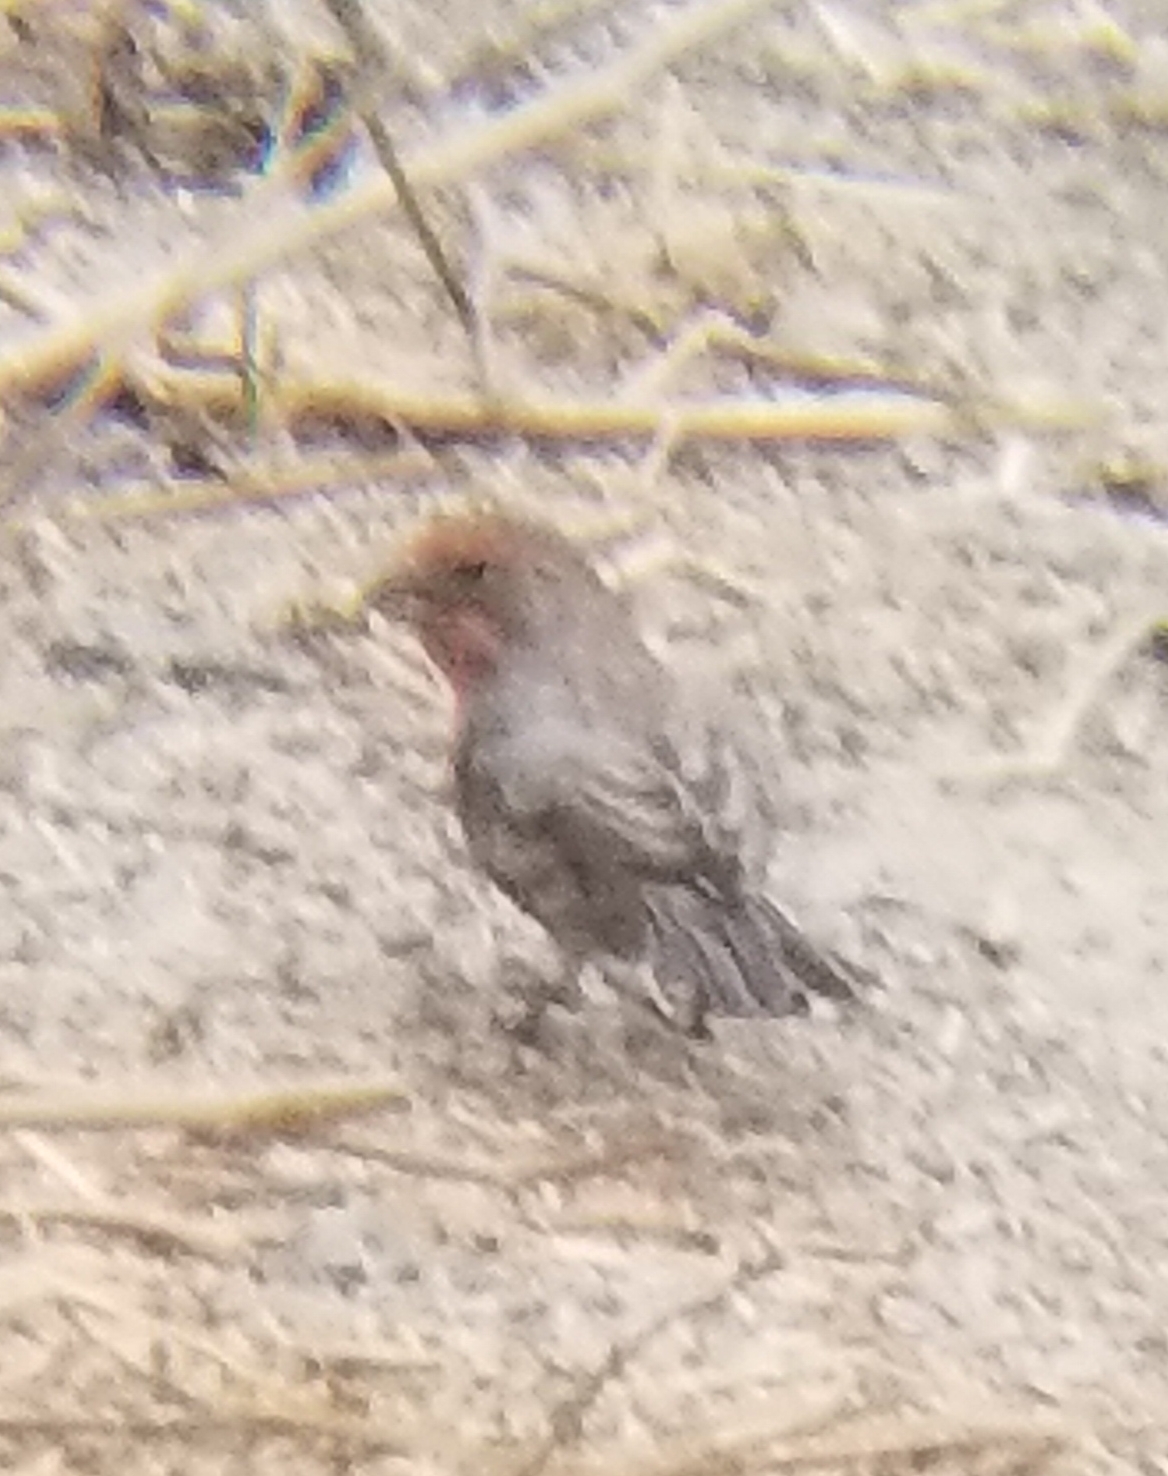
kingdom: Animalia
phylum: Chordata
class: Aves
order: Passeriformes
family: Fringillidae
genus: Haemorhous
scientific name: Haemorhous mexicanus
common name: House finch
